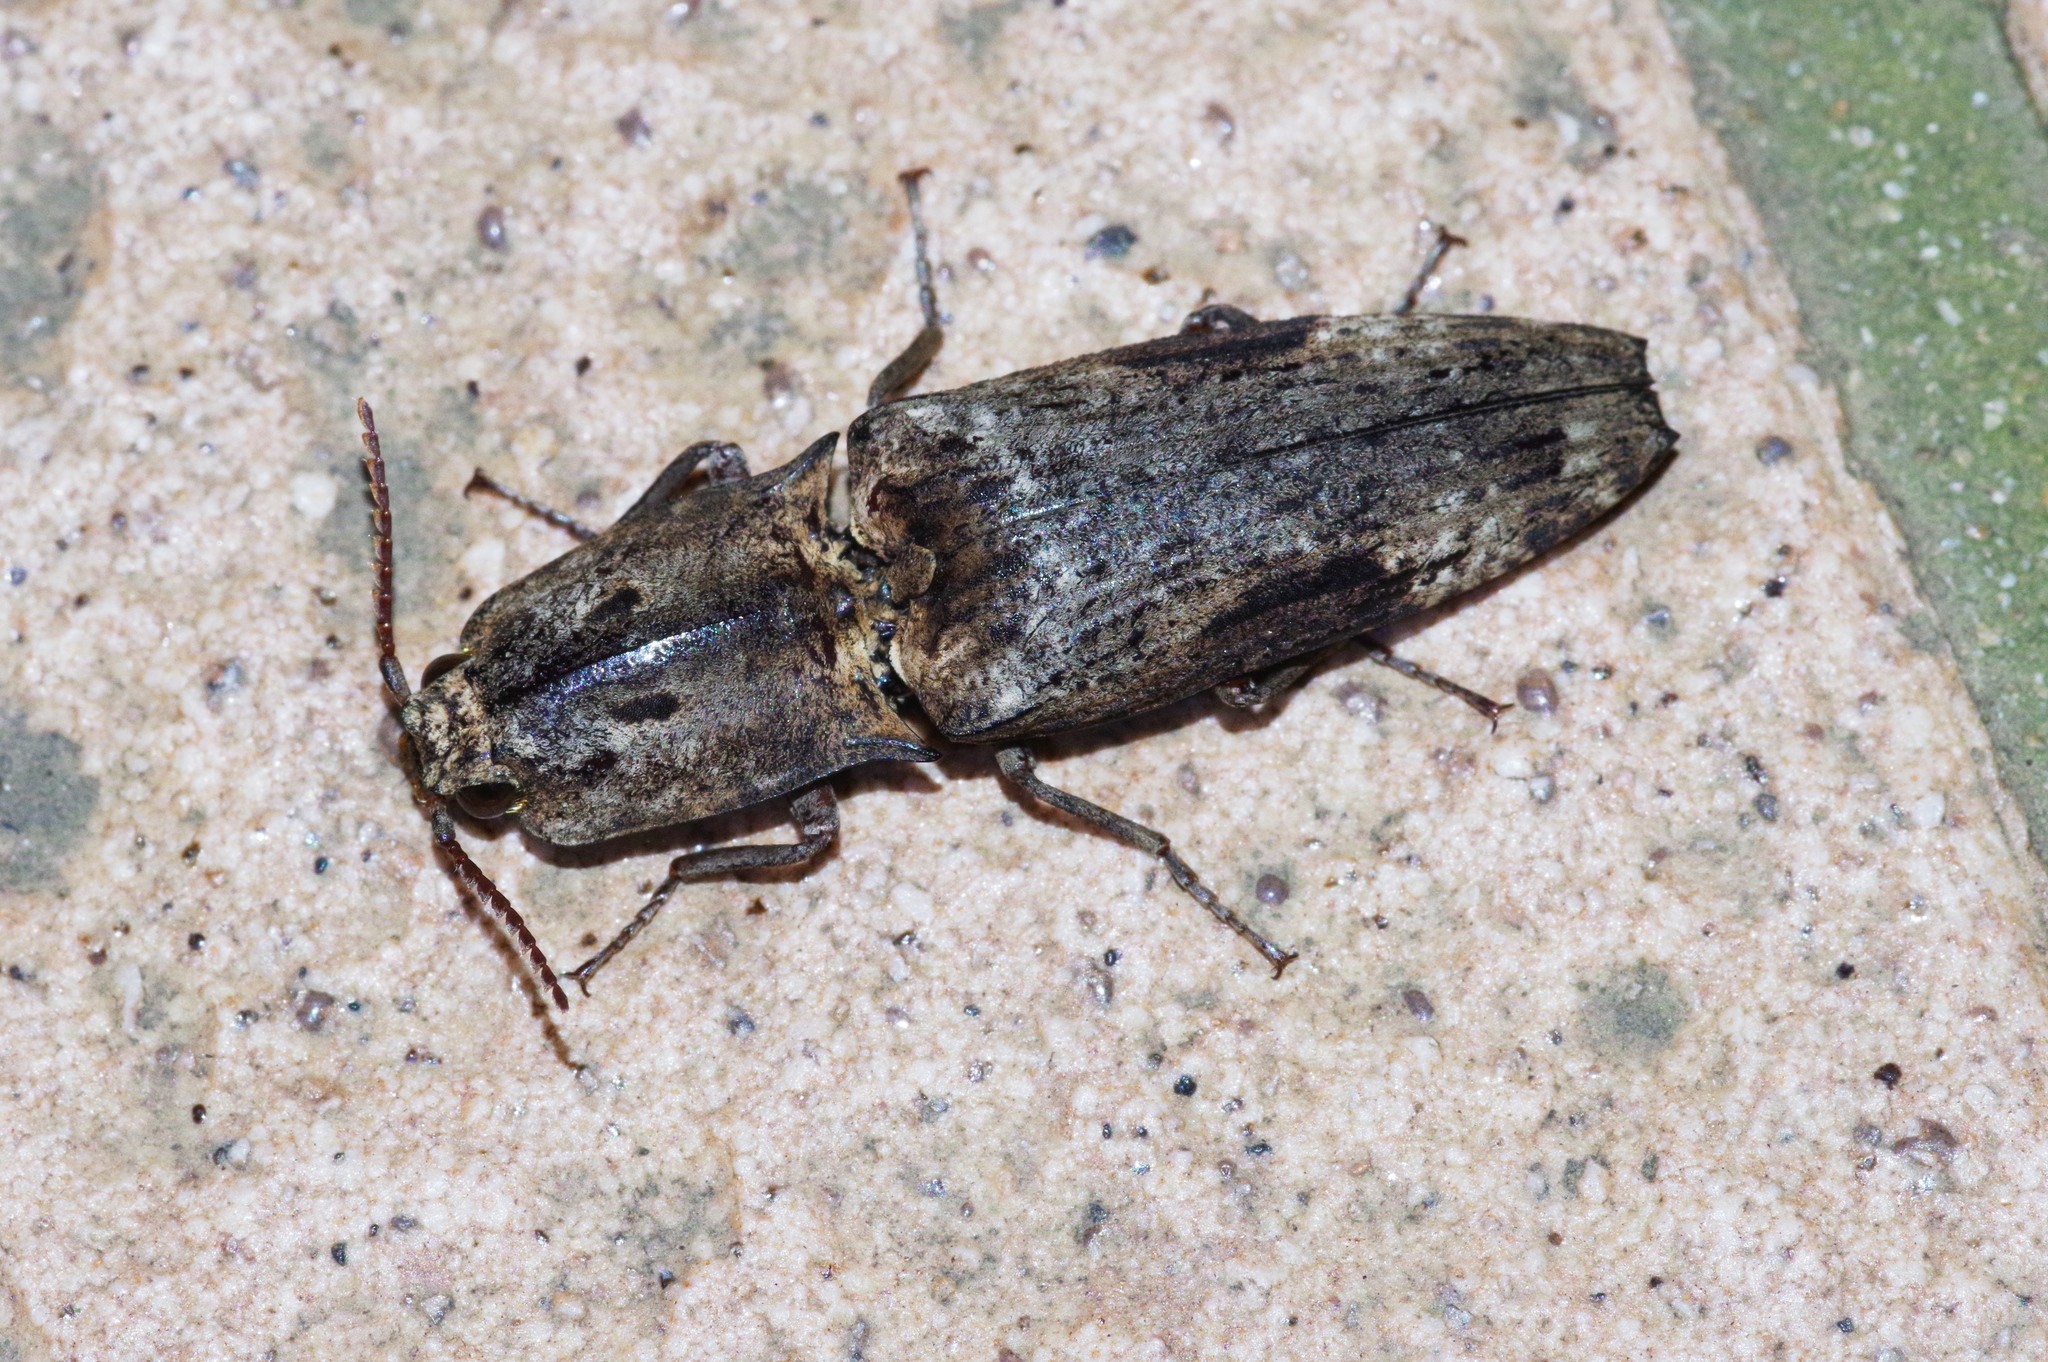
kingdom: Animalia
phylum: Arthropoda
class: Insecta
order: Coleoptera
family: Elateridae
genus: Cryptalaus
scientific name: Cryptalaus larvatus
